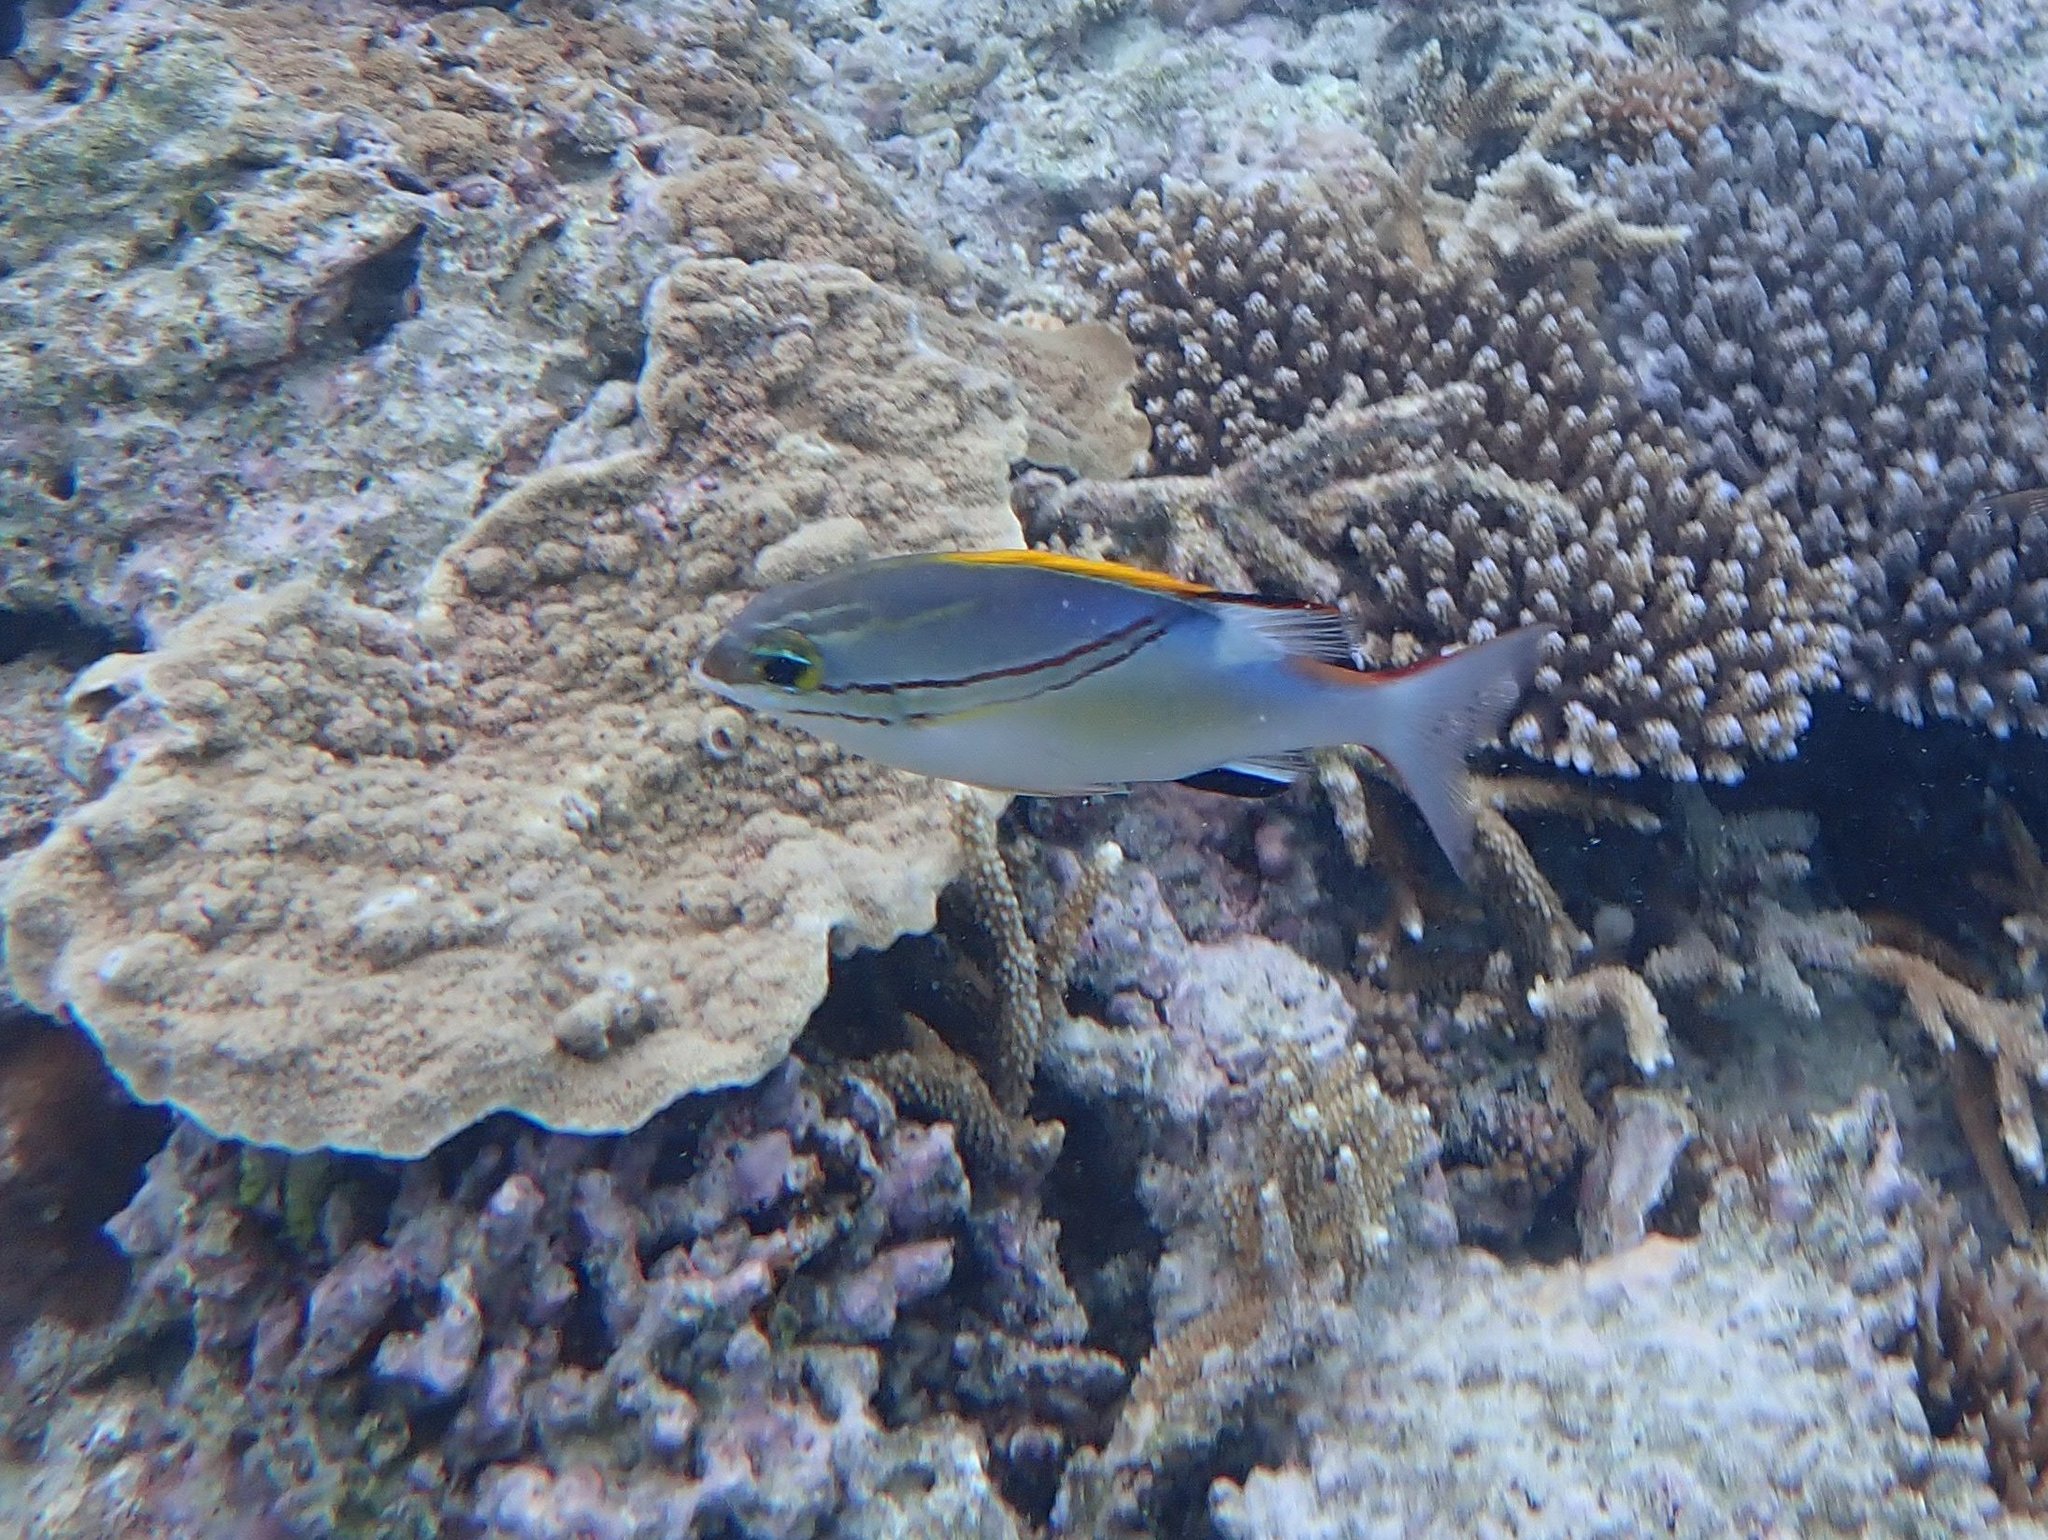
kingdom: Animalia
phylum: Chordata
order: Perciformes
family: Nemipteridae
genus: Scolopsis
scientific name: Scolopsis bilineata
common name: Two-lined monocle bream
